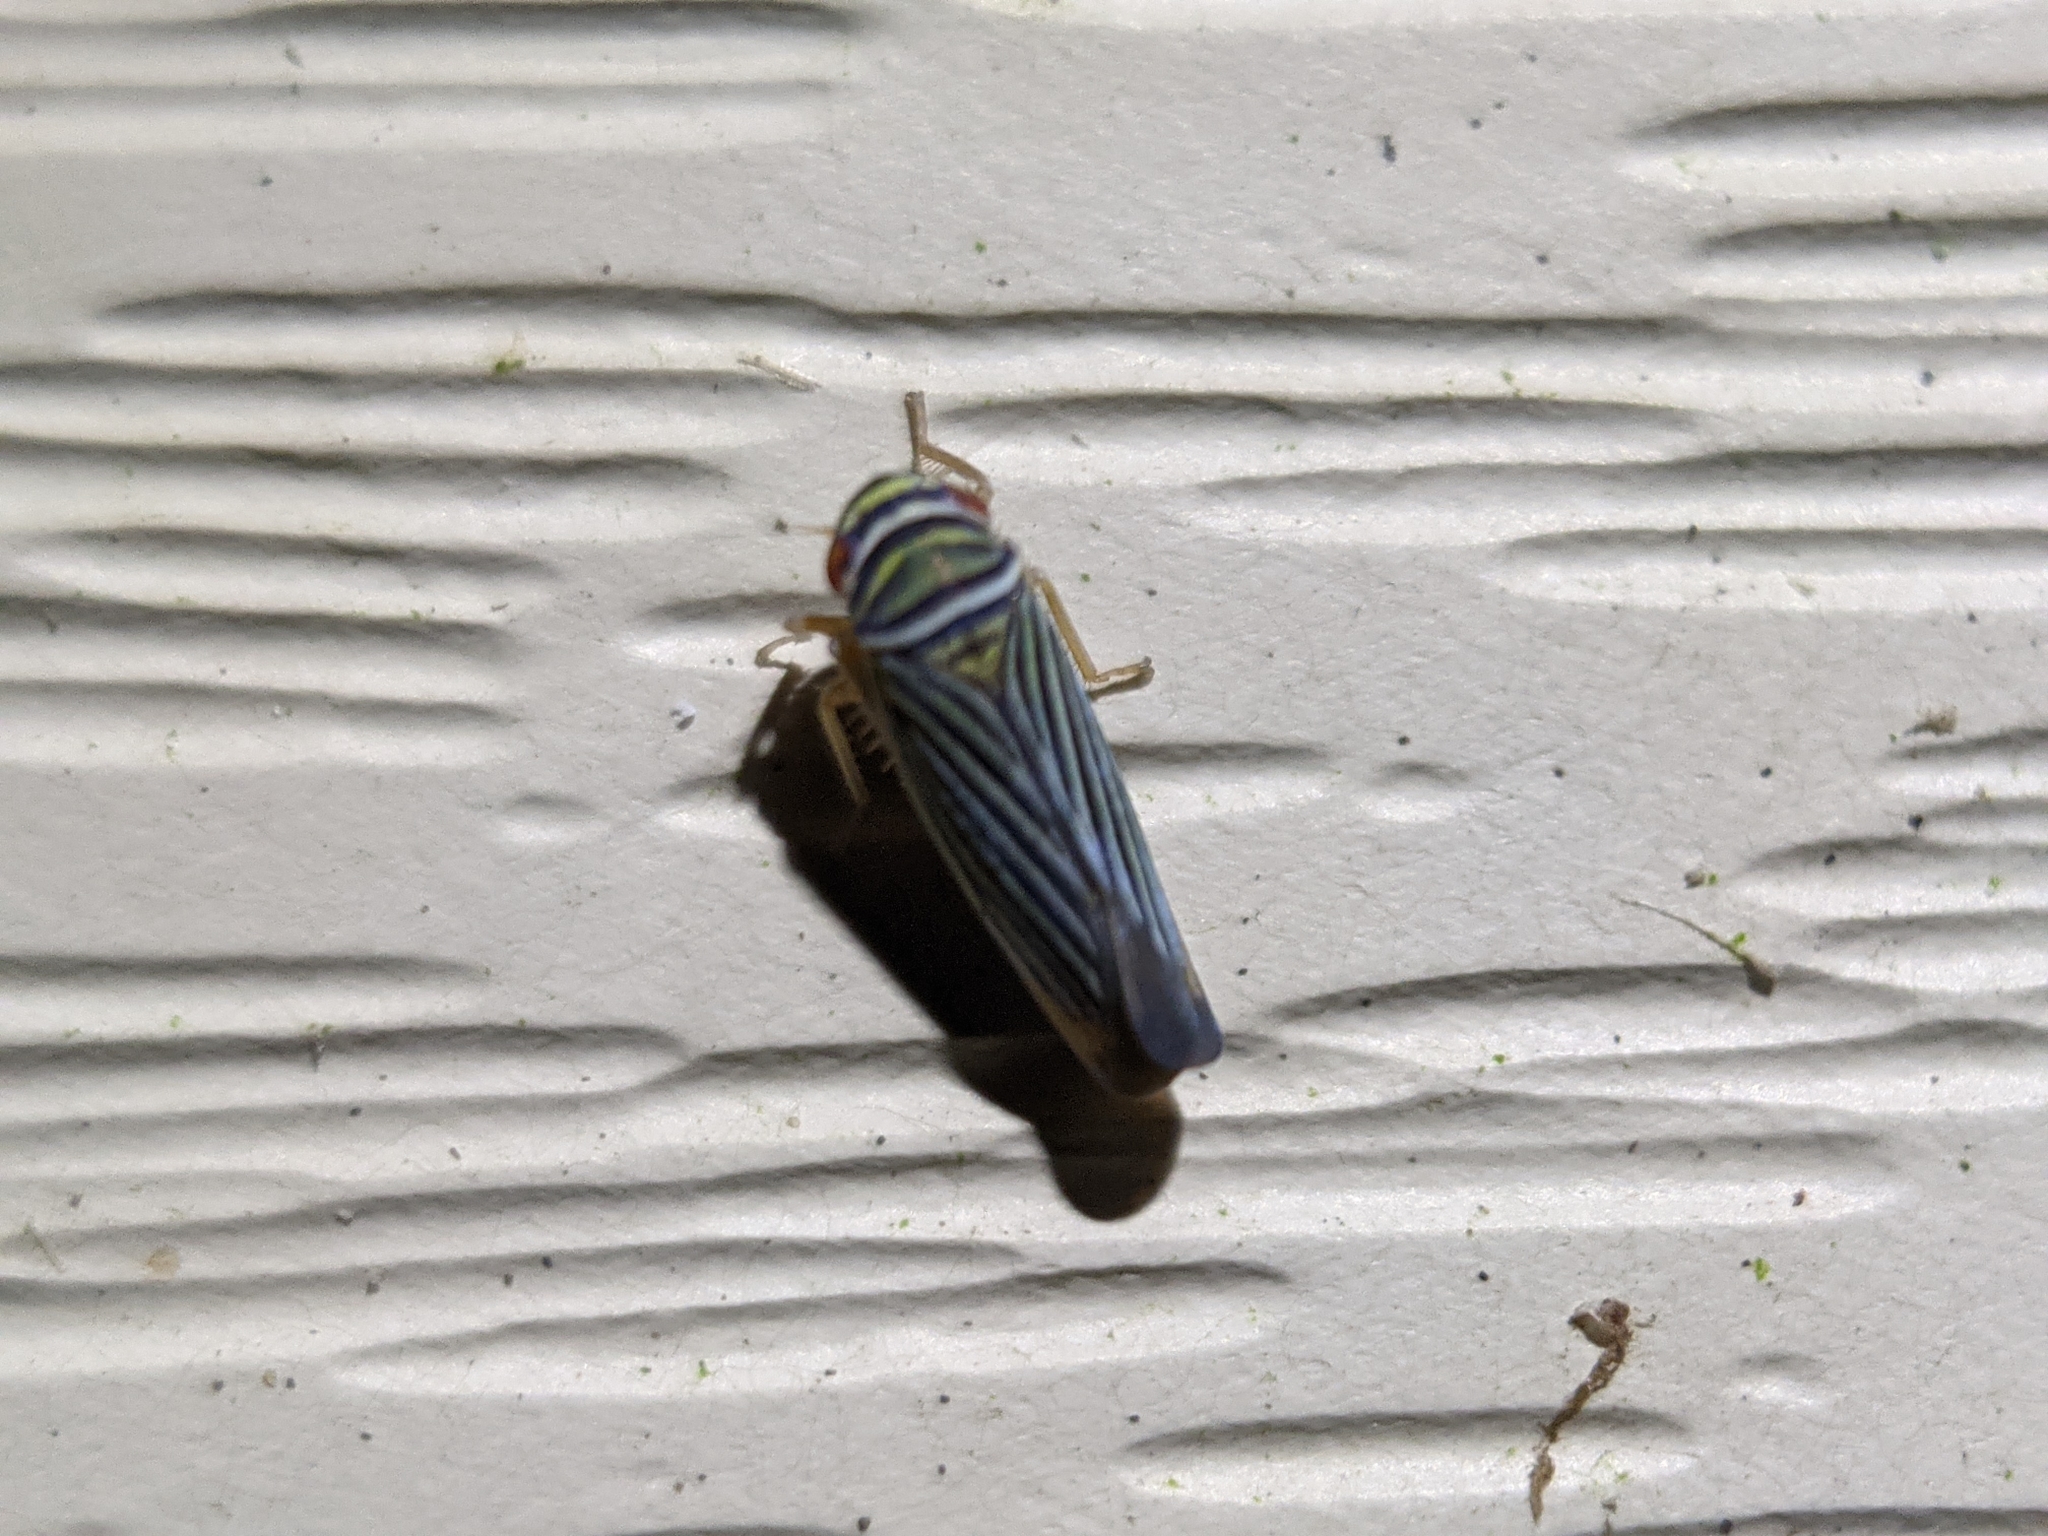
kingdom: Animalia
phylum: Arthropoda
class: Insecta
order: Hemiptera
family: Cicadellidae
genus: Tylozygus
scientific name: Tylozygus bifidus
